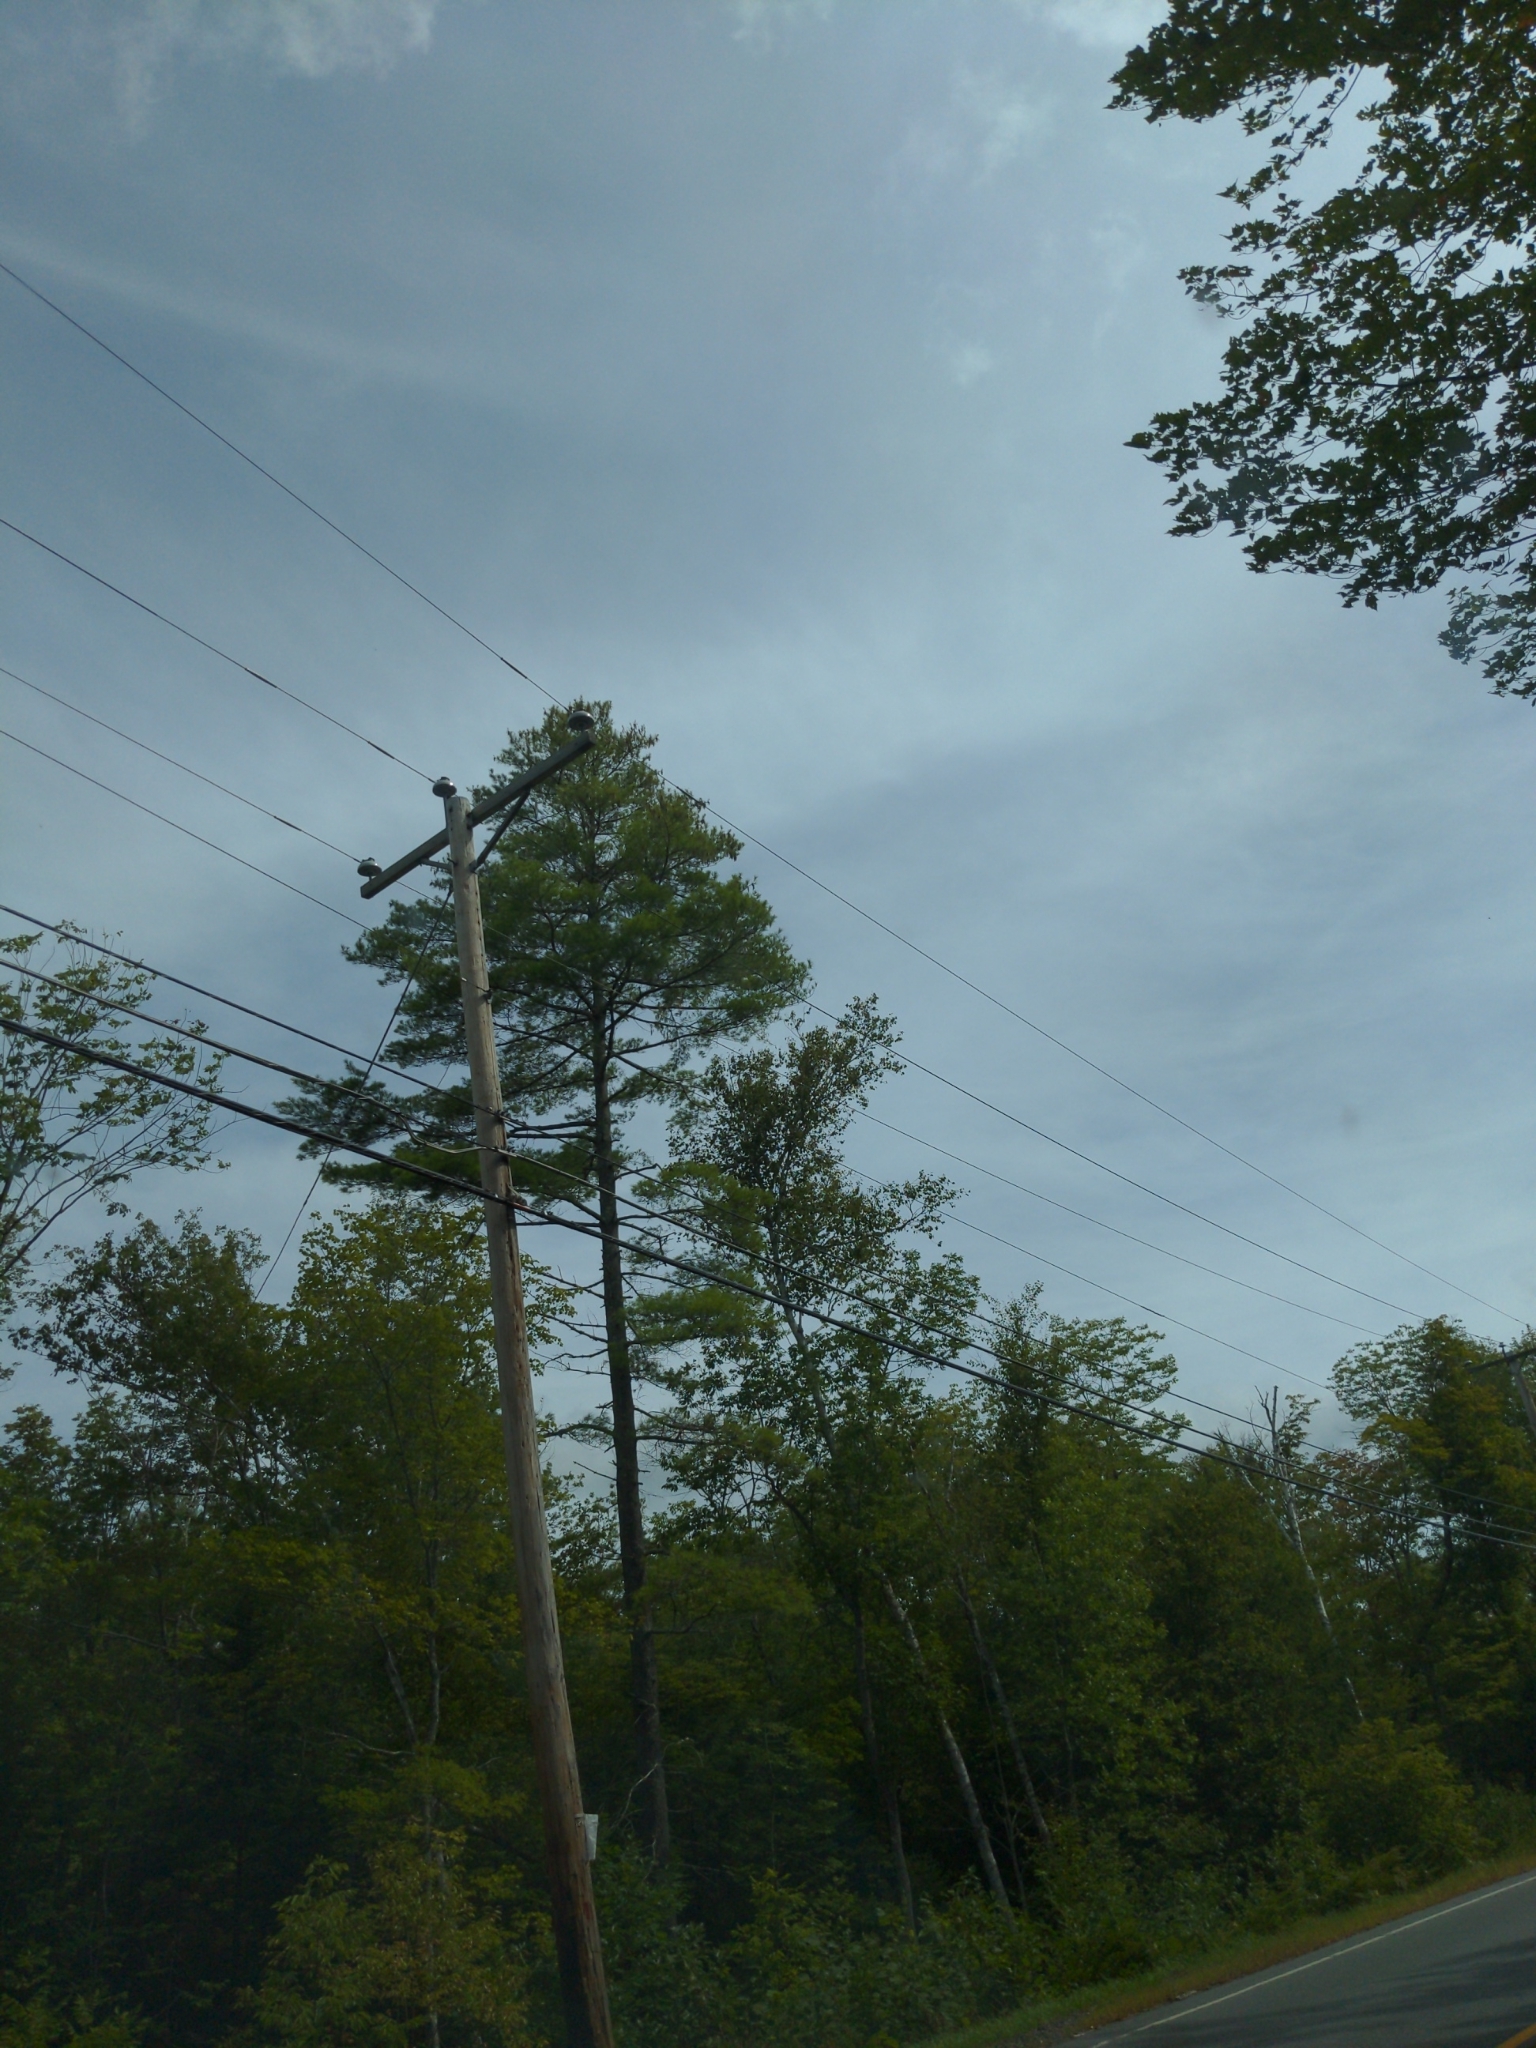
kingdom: Plantae
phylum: Tracheophyta
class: Pinopsida
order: Pinales
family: Pinaceae
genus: Pinus
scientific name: Pinus strobus
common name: Weymouth pine
